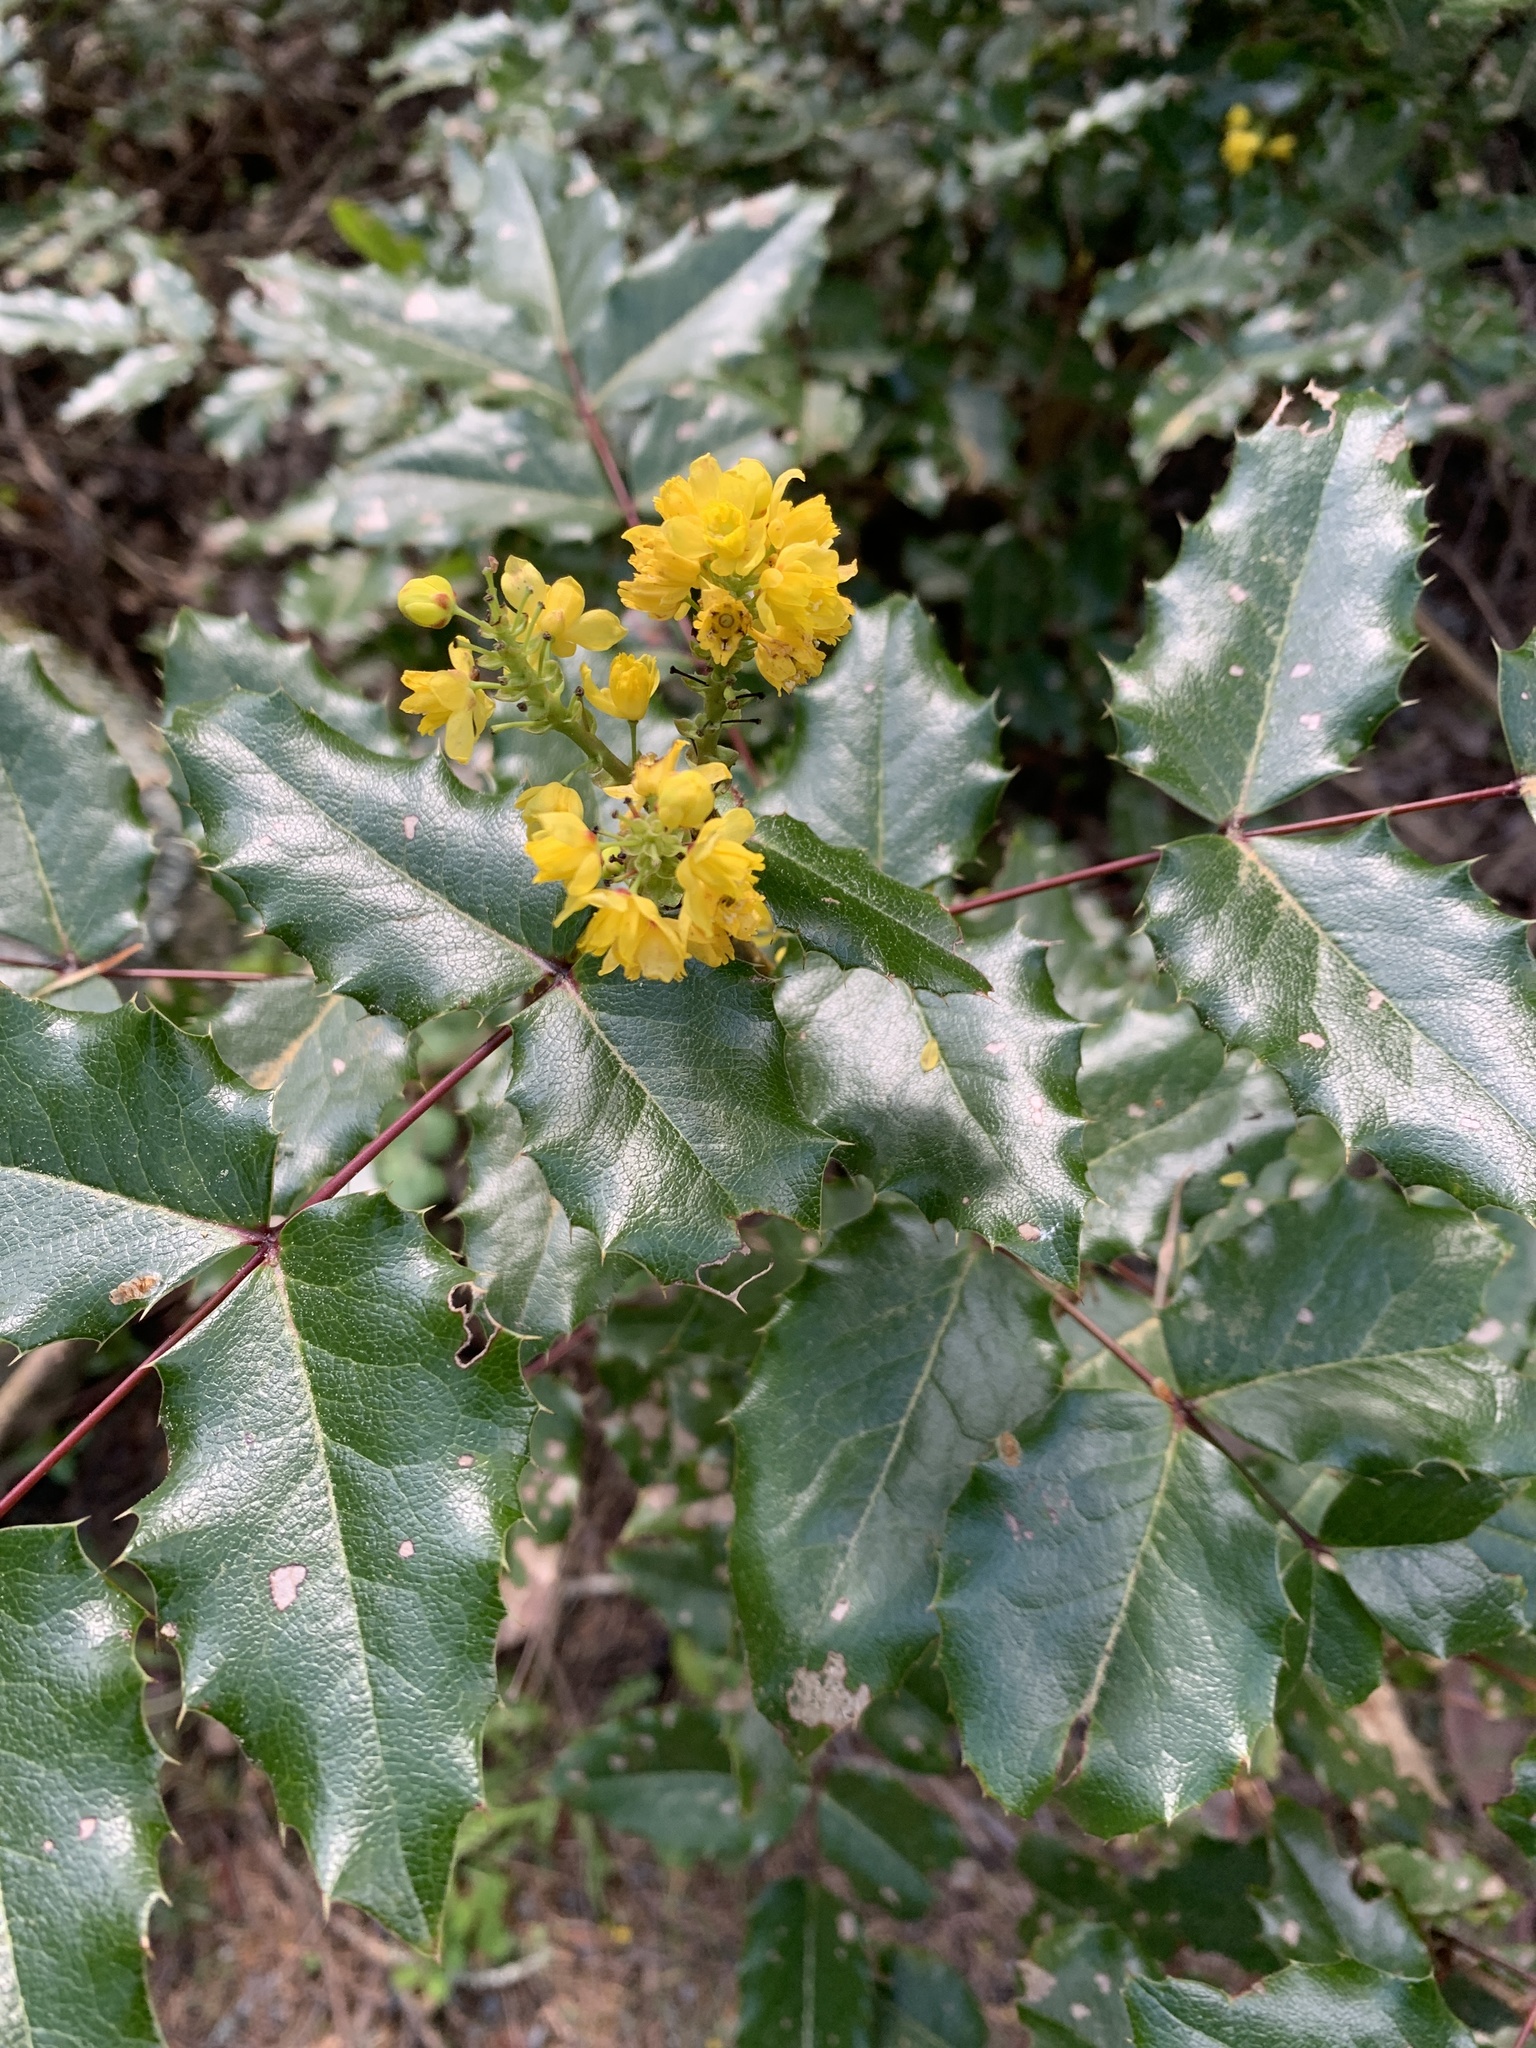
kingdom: Plantae
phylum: Tracheophyta
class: Magnoliopsida
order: Ranunculales
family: Berberidaceae
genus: Mahonia
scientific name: Mahonia aquifolium
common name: Oregon-grape
